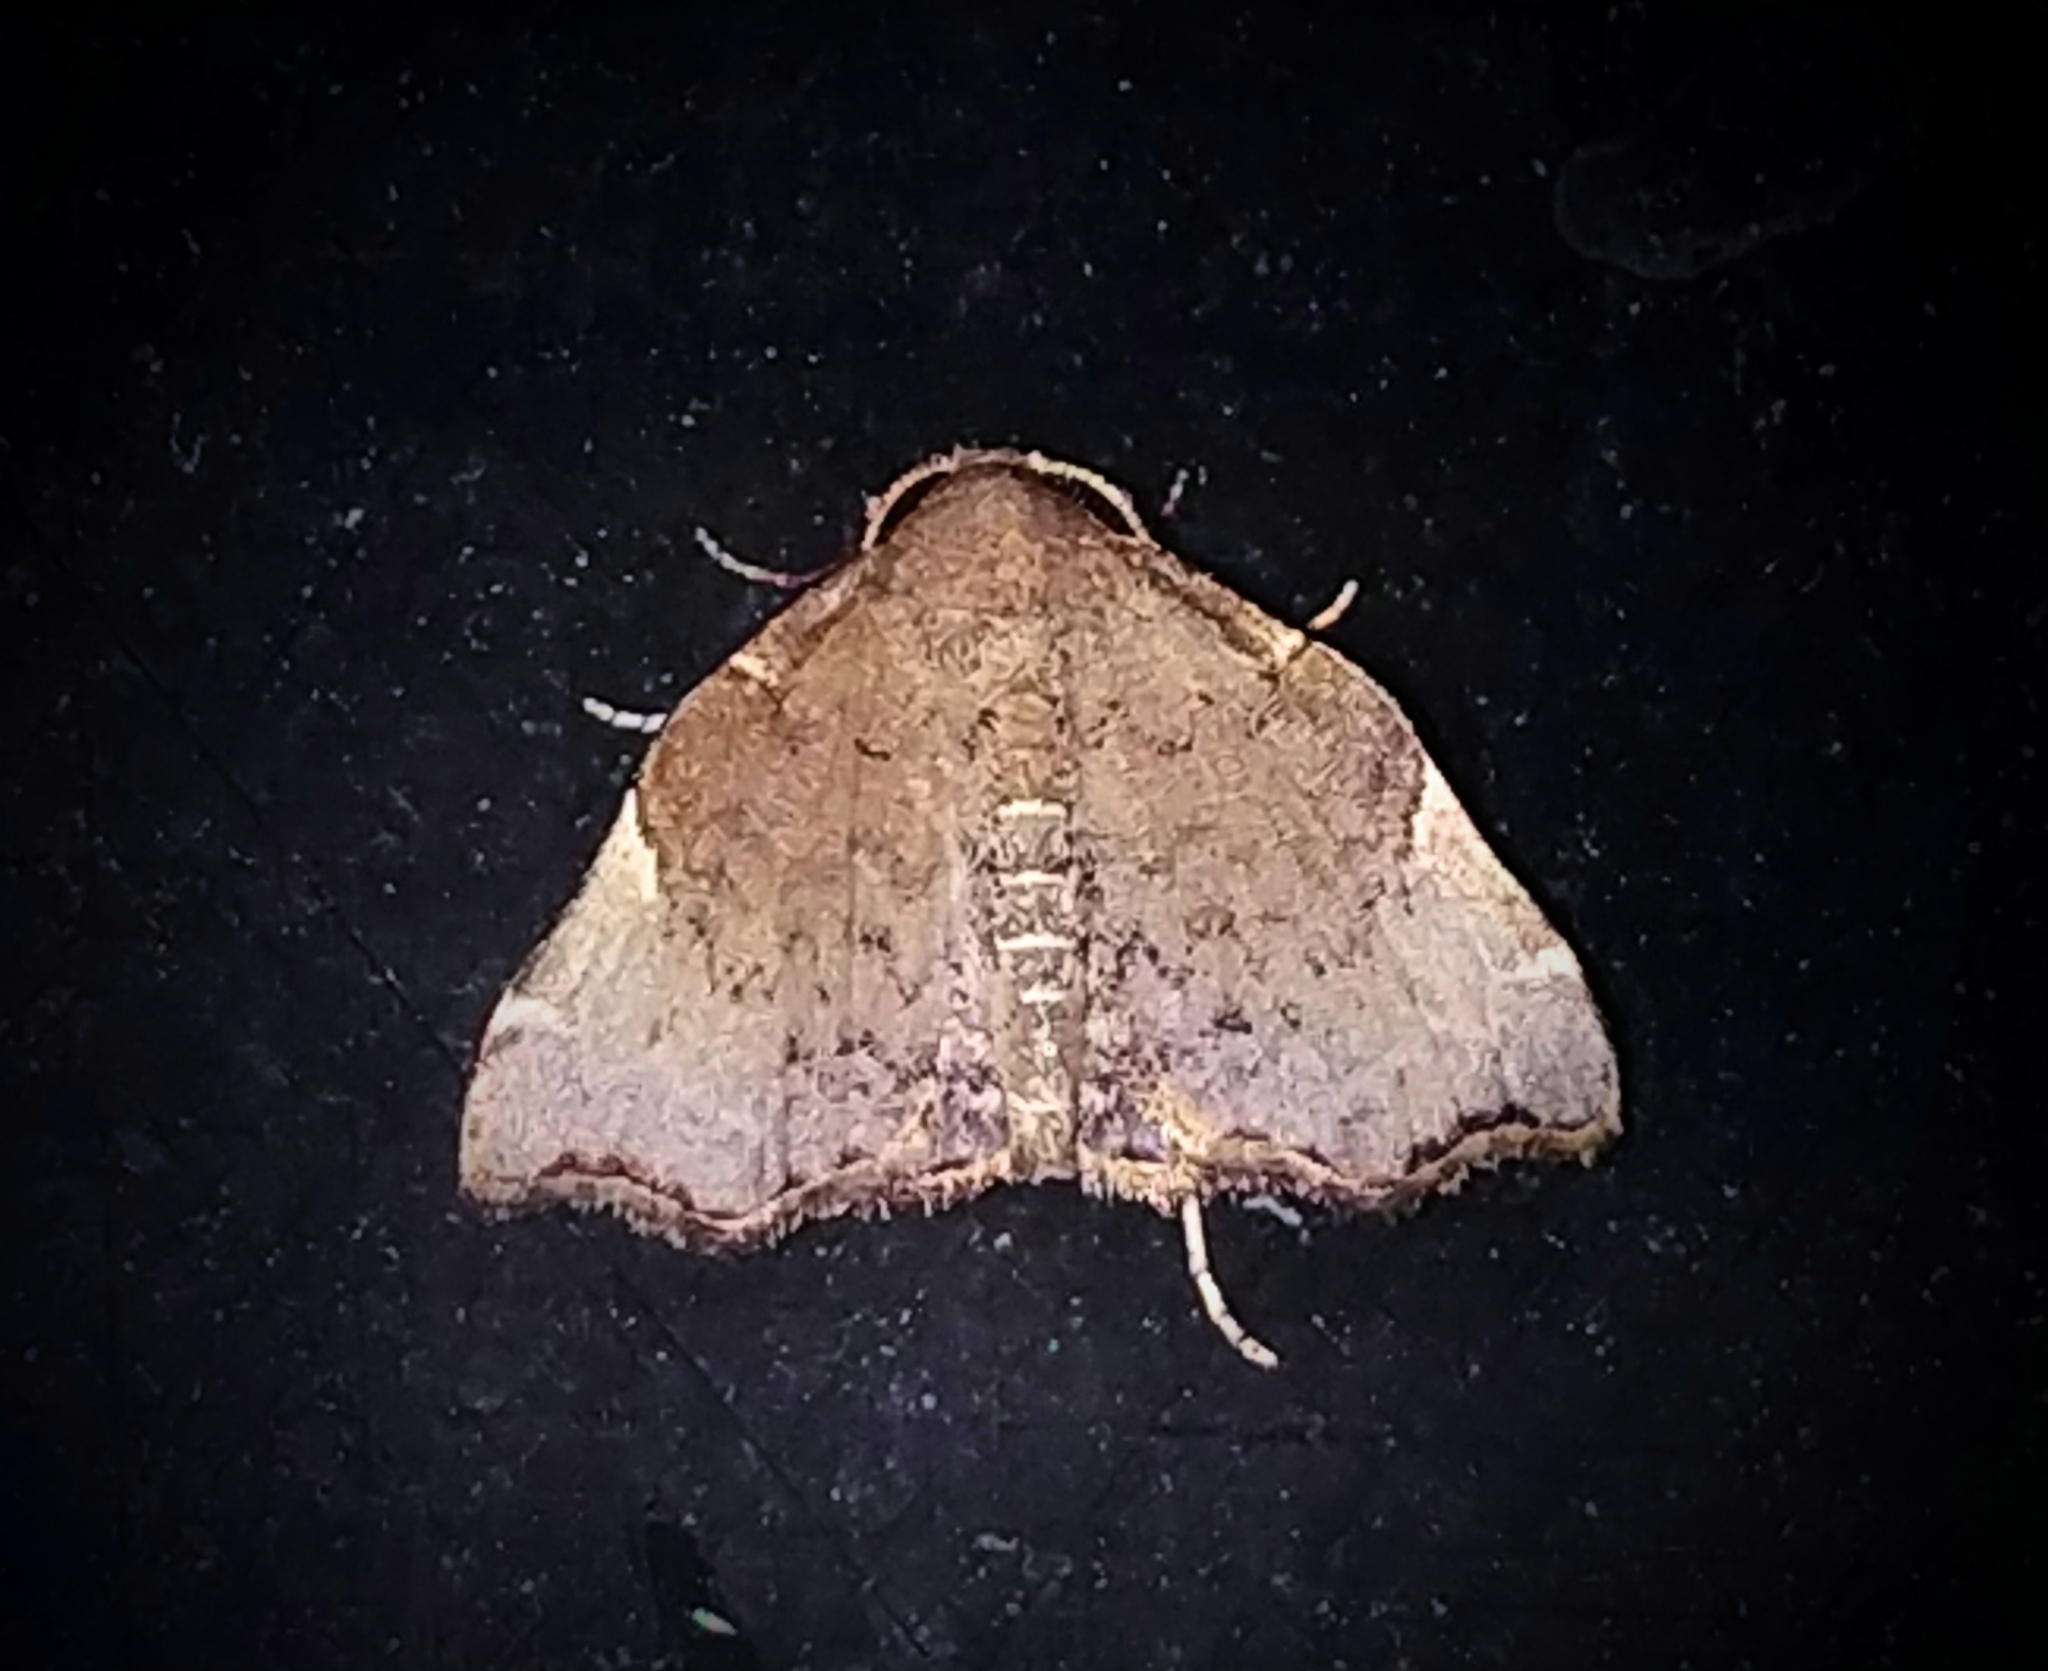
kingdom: Animalia
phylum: Arthropoda
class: Insecta
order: Lepidoptera
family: Erebidae
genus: Goniocraspedon
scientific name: Goniocraspedon mistura
